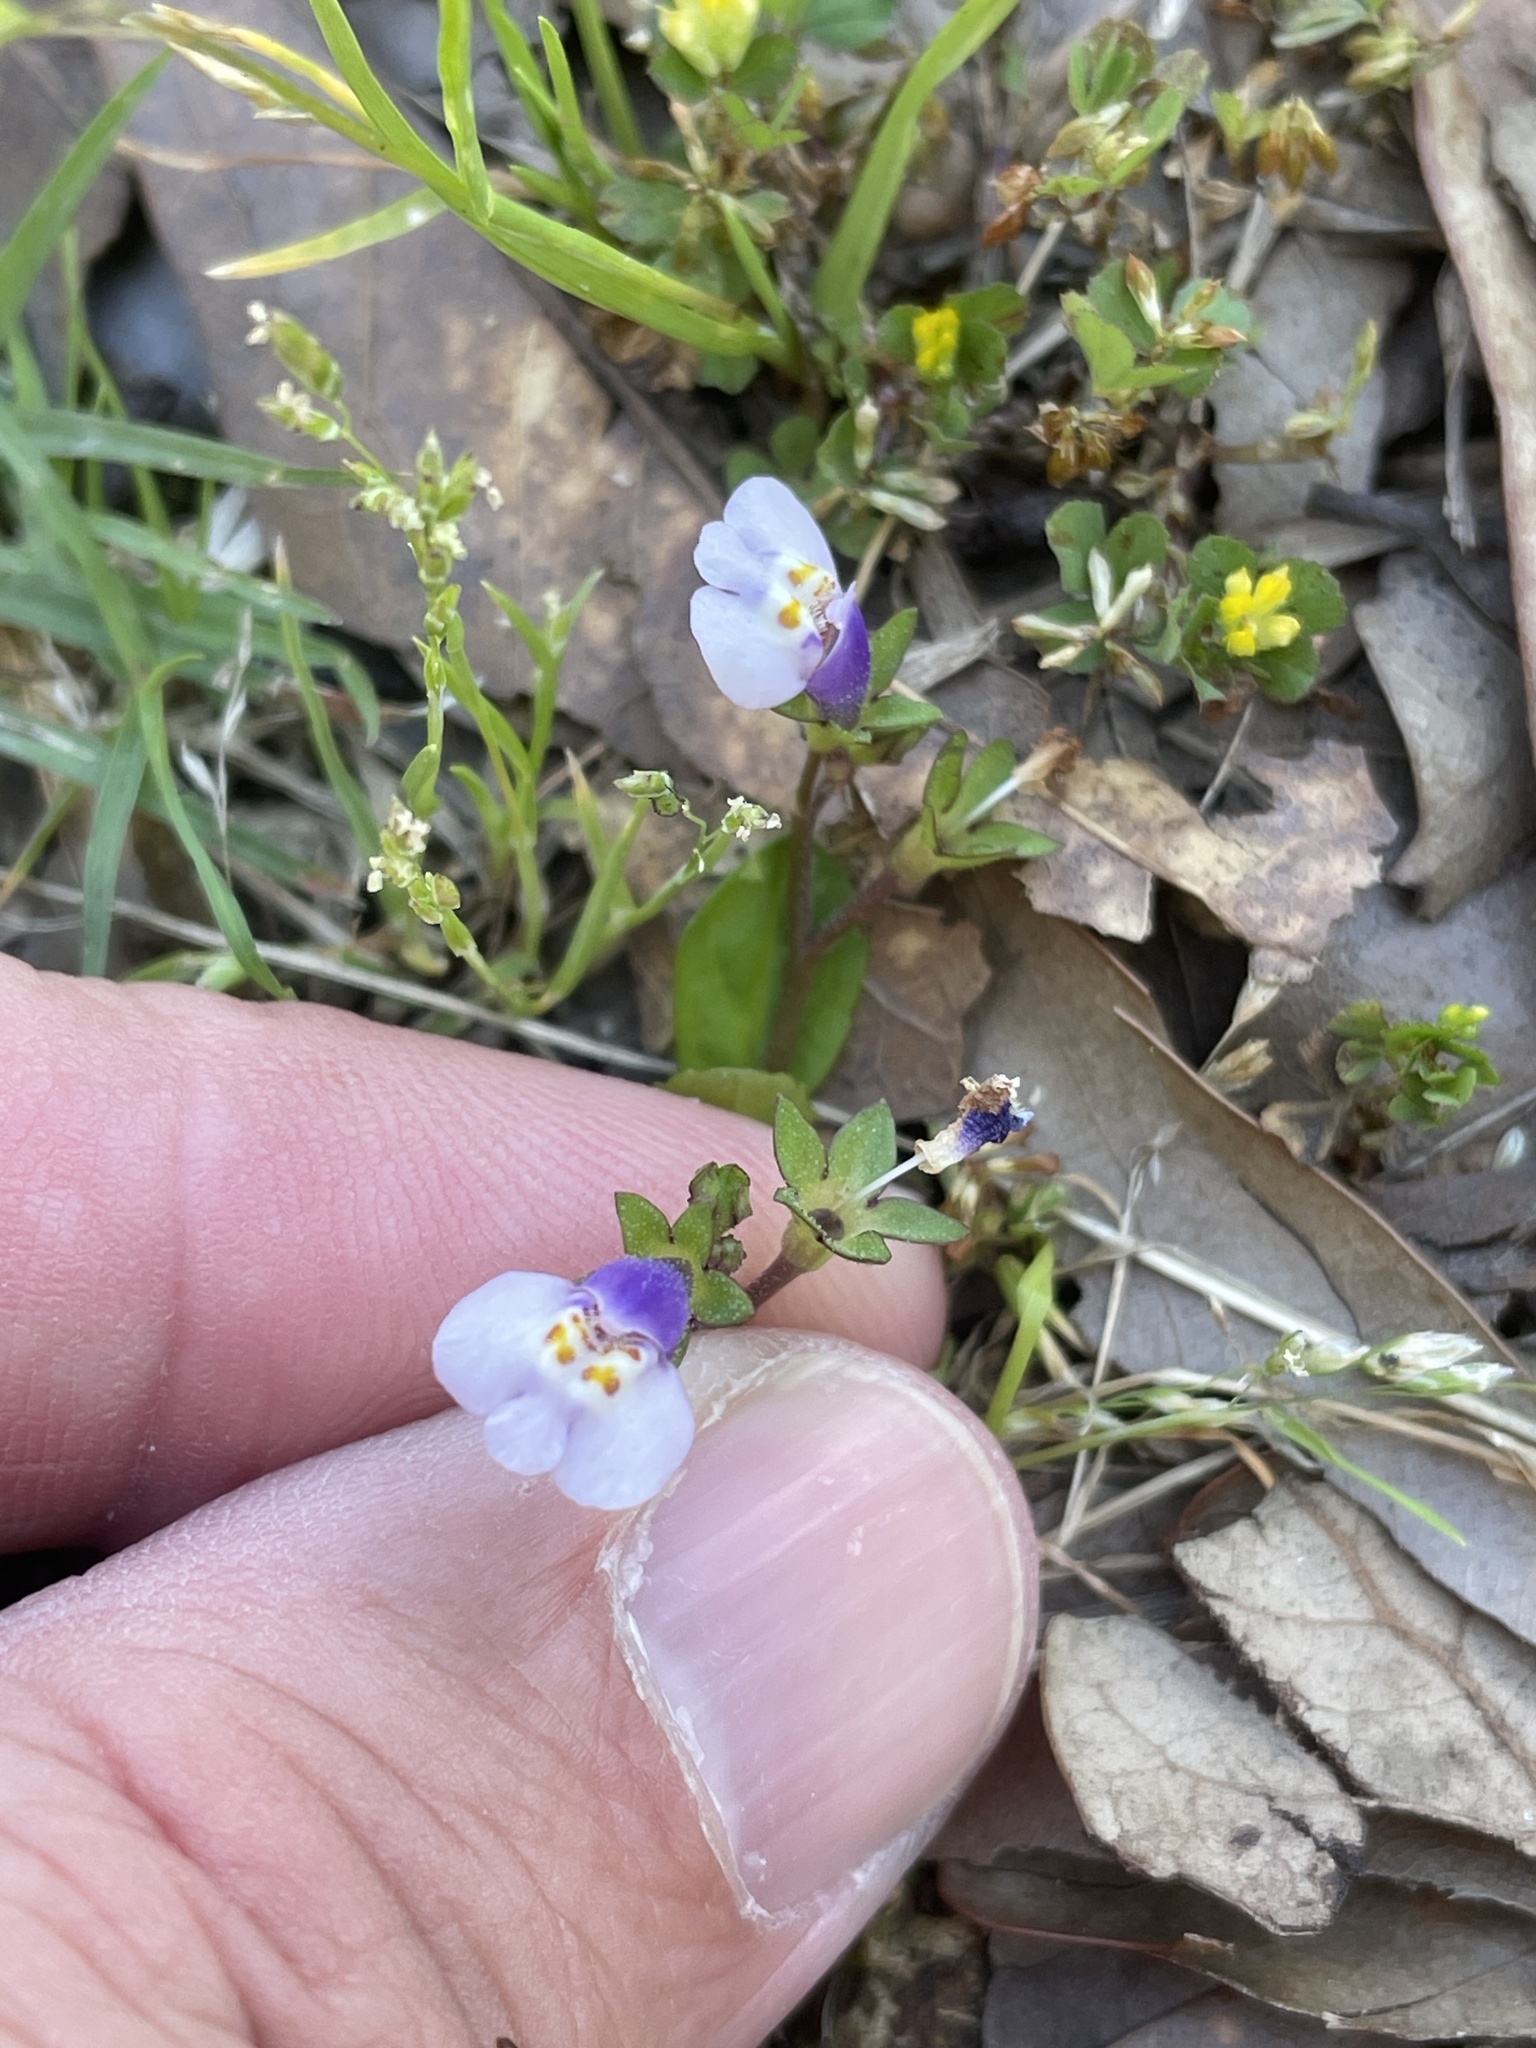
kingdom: Plantae
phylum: Tracheophyta
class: Magnoliopsida
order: Lamiales
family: Mazaceae
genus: Mazus
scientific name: Mazus pumilus
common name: Japanese mazus
